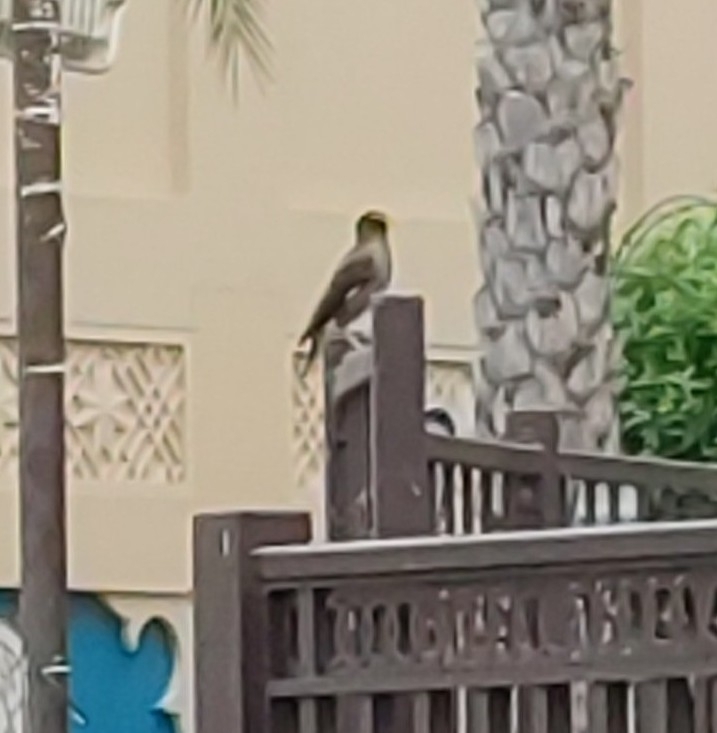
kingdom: Animalia
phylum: Chordata
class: Aves
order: Passeriformes
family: Sturnidae
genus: Acridotheres
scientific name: Acridotheres tristis
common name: Common myna
